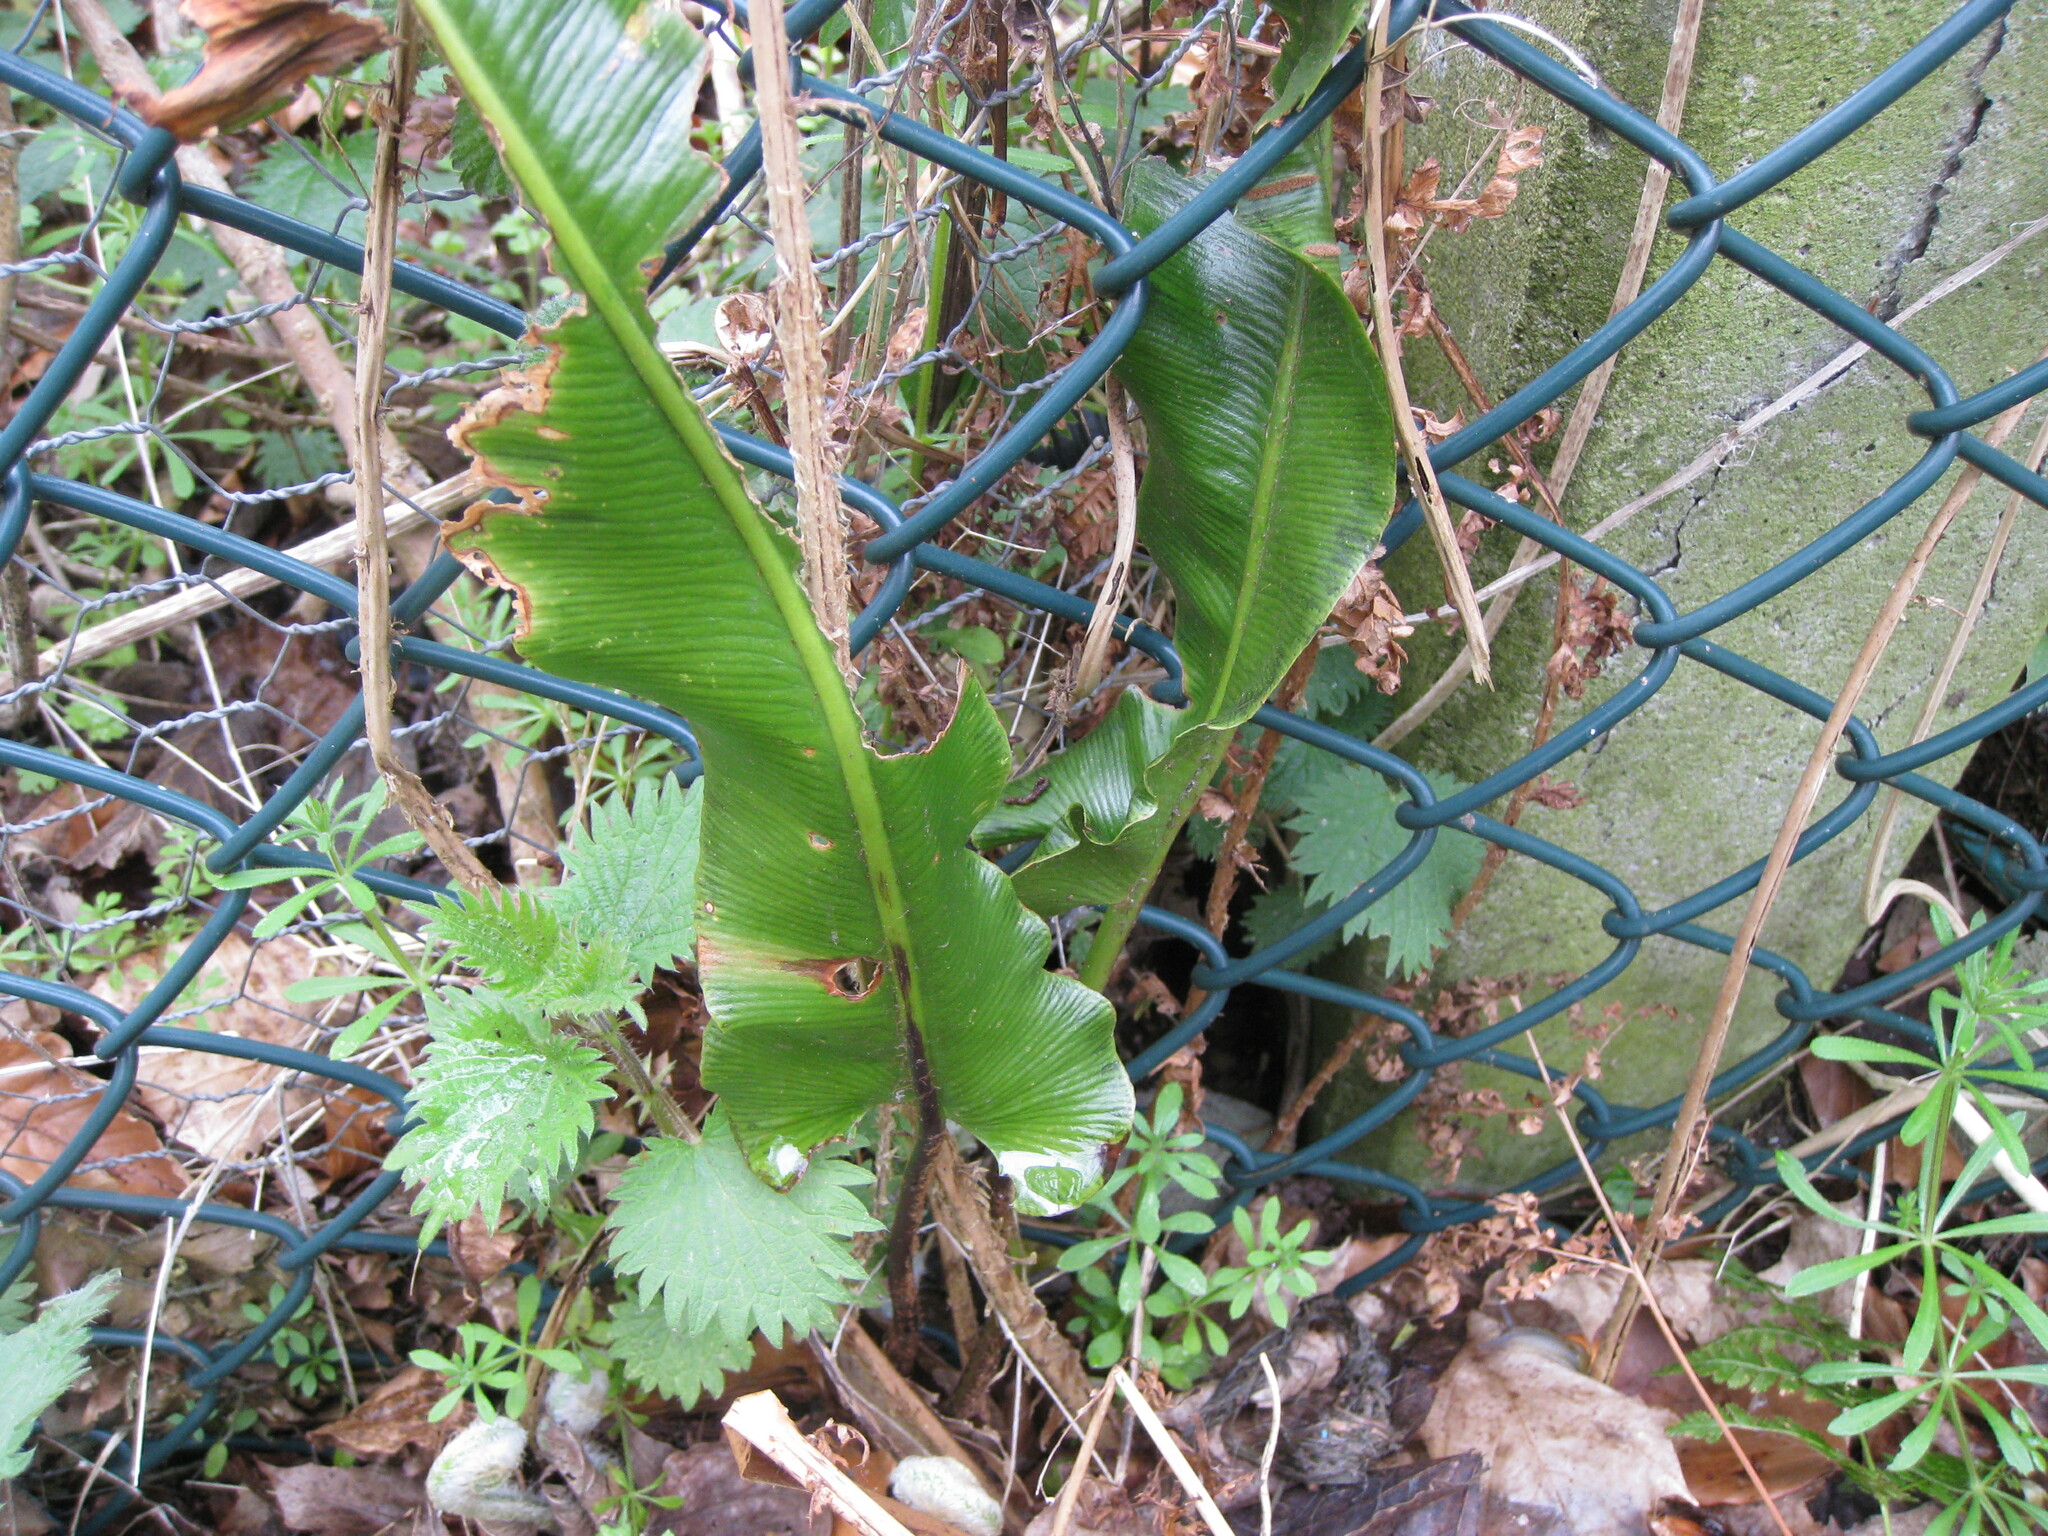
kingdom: Plantae
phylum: Tracheophyta
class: Polypodiopsida
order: Polypodiales
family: Aspleniaceae
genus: Asplenium
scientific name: Asplenium scolopendrium
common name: Hart's-tongue fern
